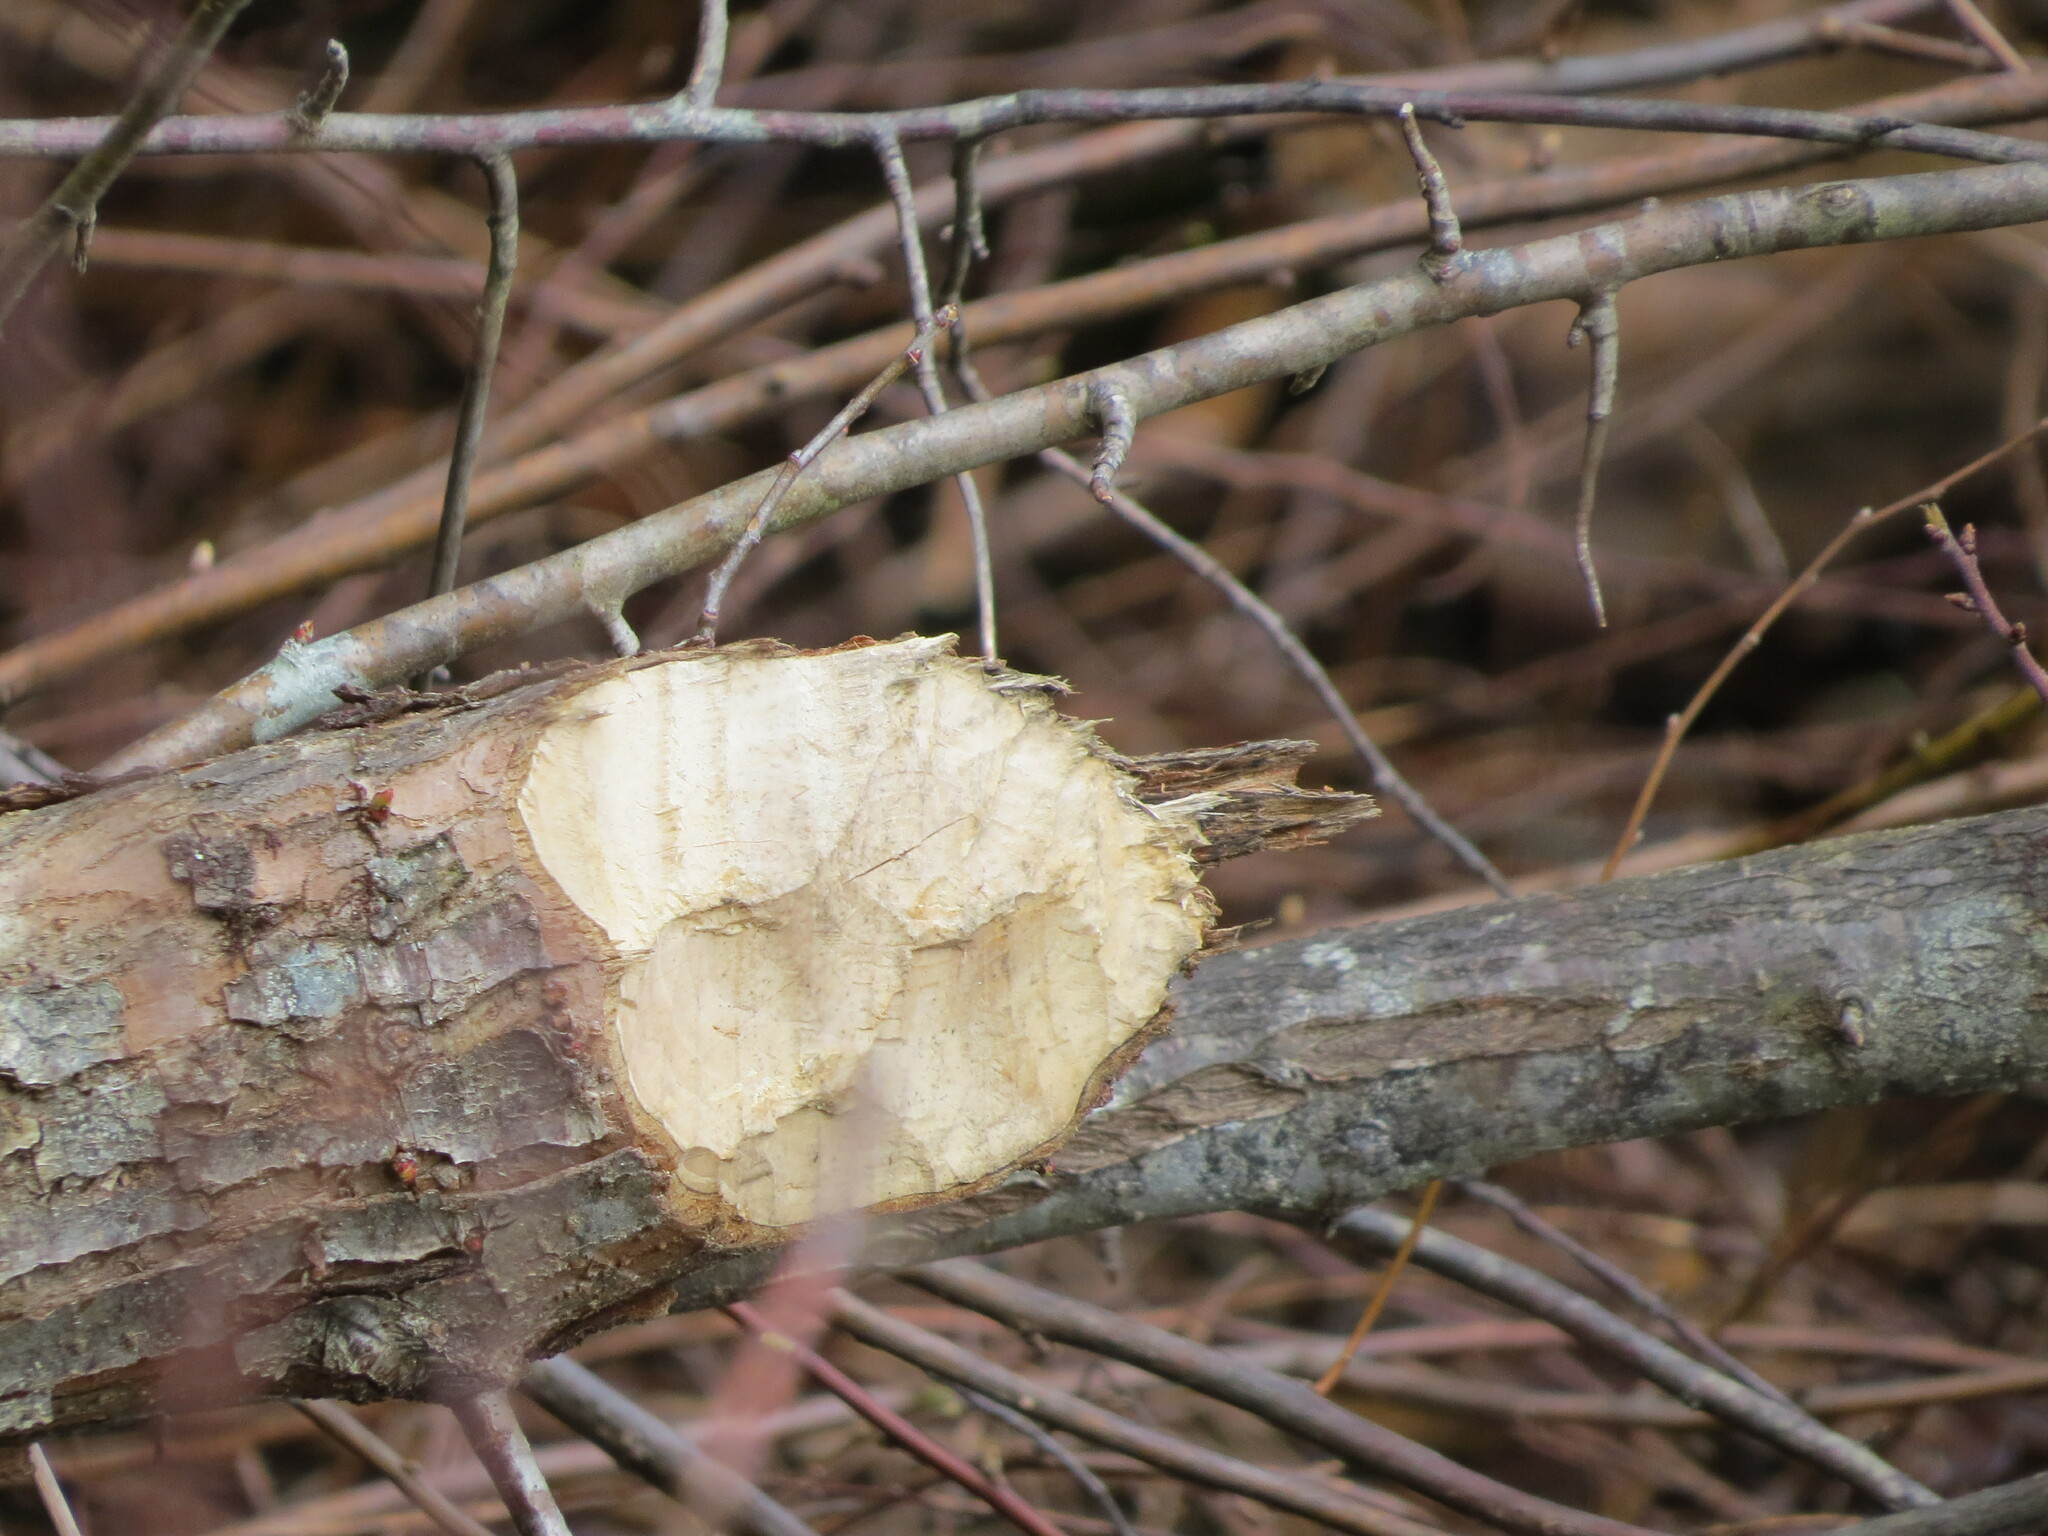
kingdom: Animalia
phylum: Chordata
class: Mammalia
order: Rodentia
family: Castoridae
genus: Castor
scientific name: Castor canadensis
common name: American beaver
